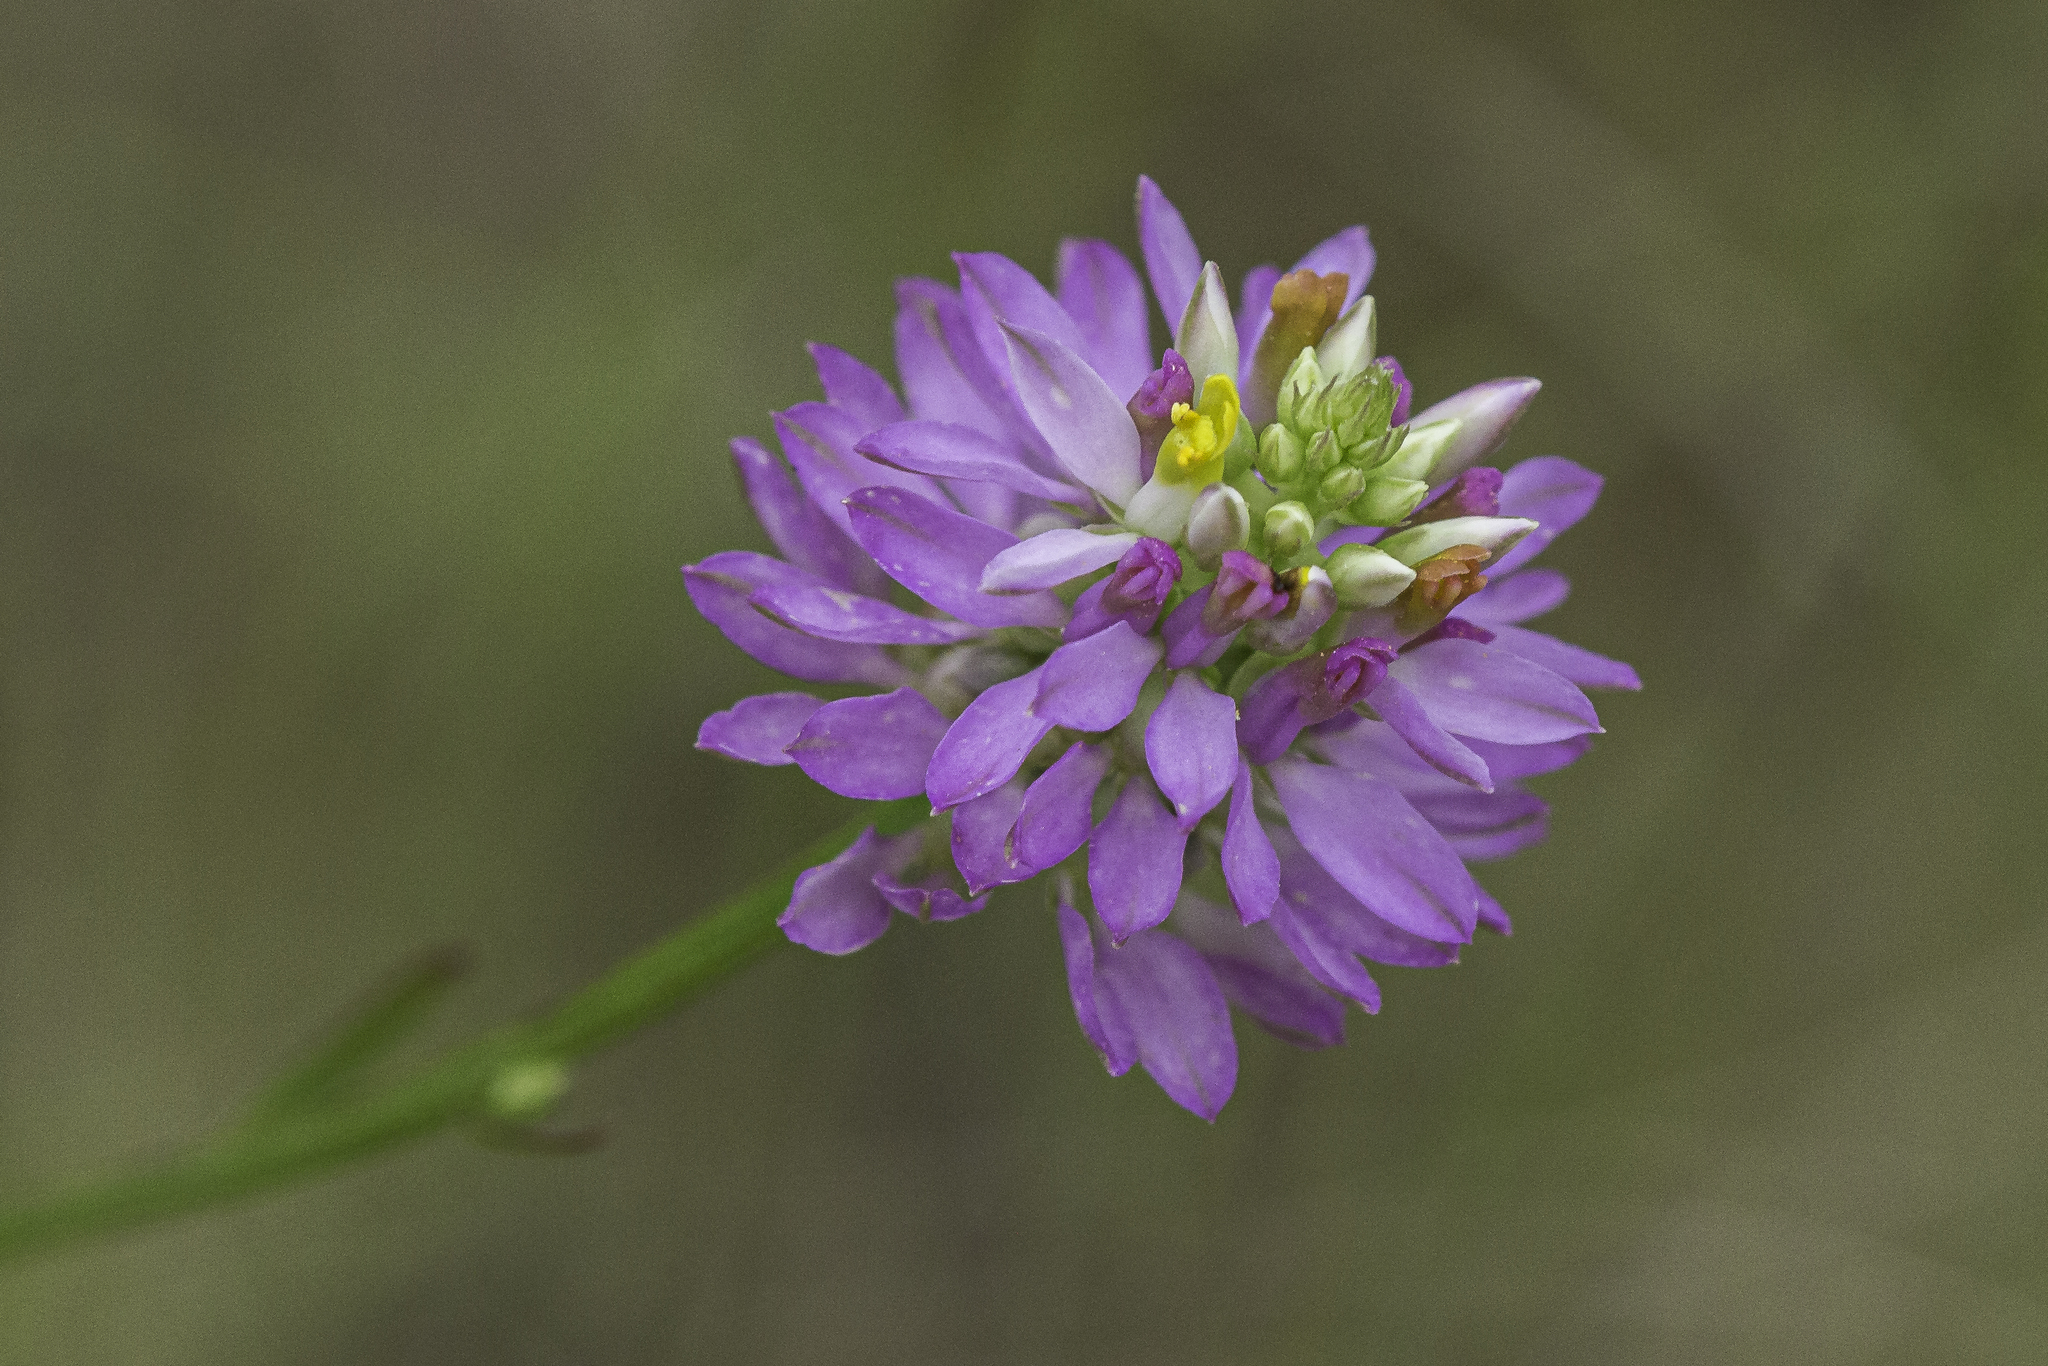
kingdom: Plantae
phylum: Tracheophyta
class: Magnoliopsida
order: Fabales
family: Polygalaceae
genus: Polygala
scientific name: Polygala curtissii
